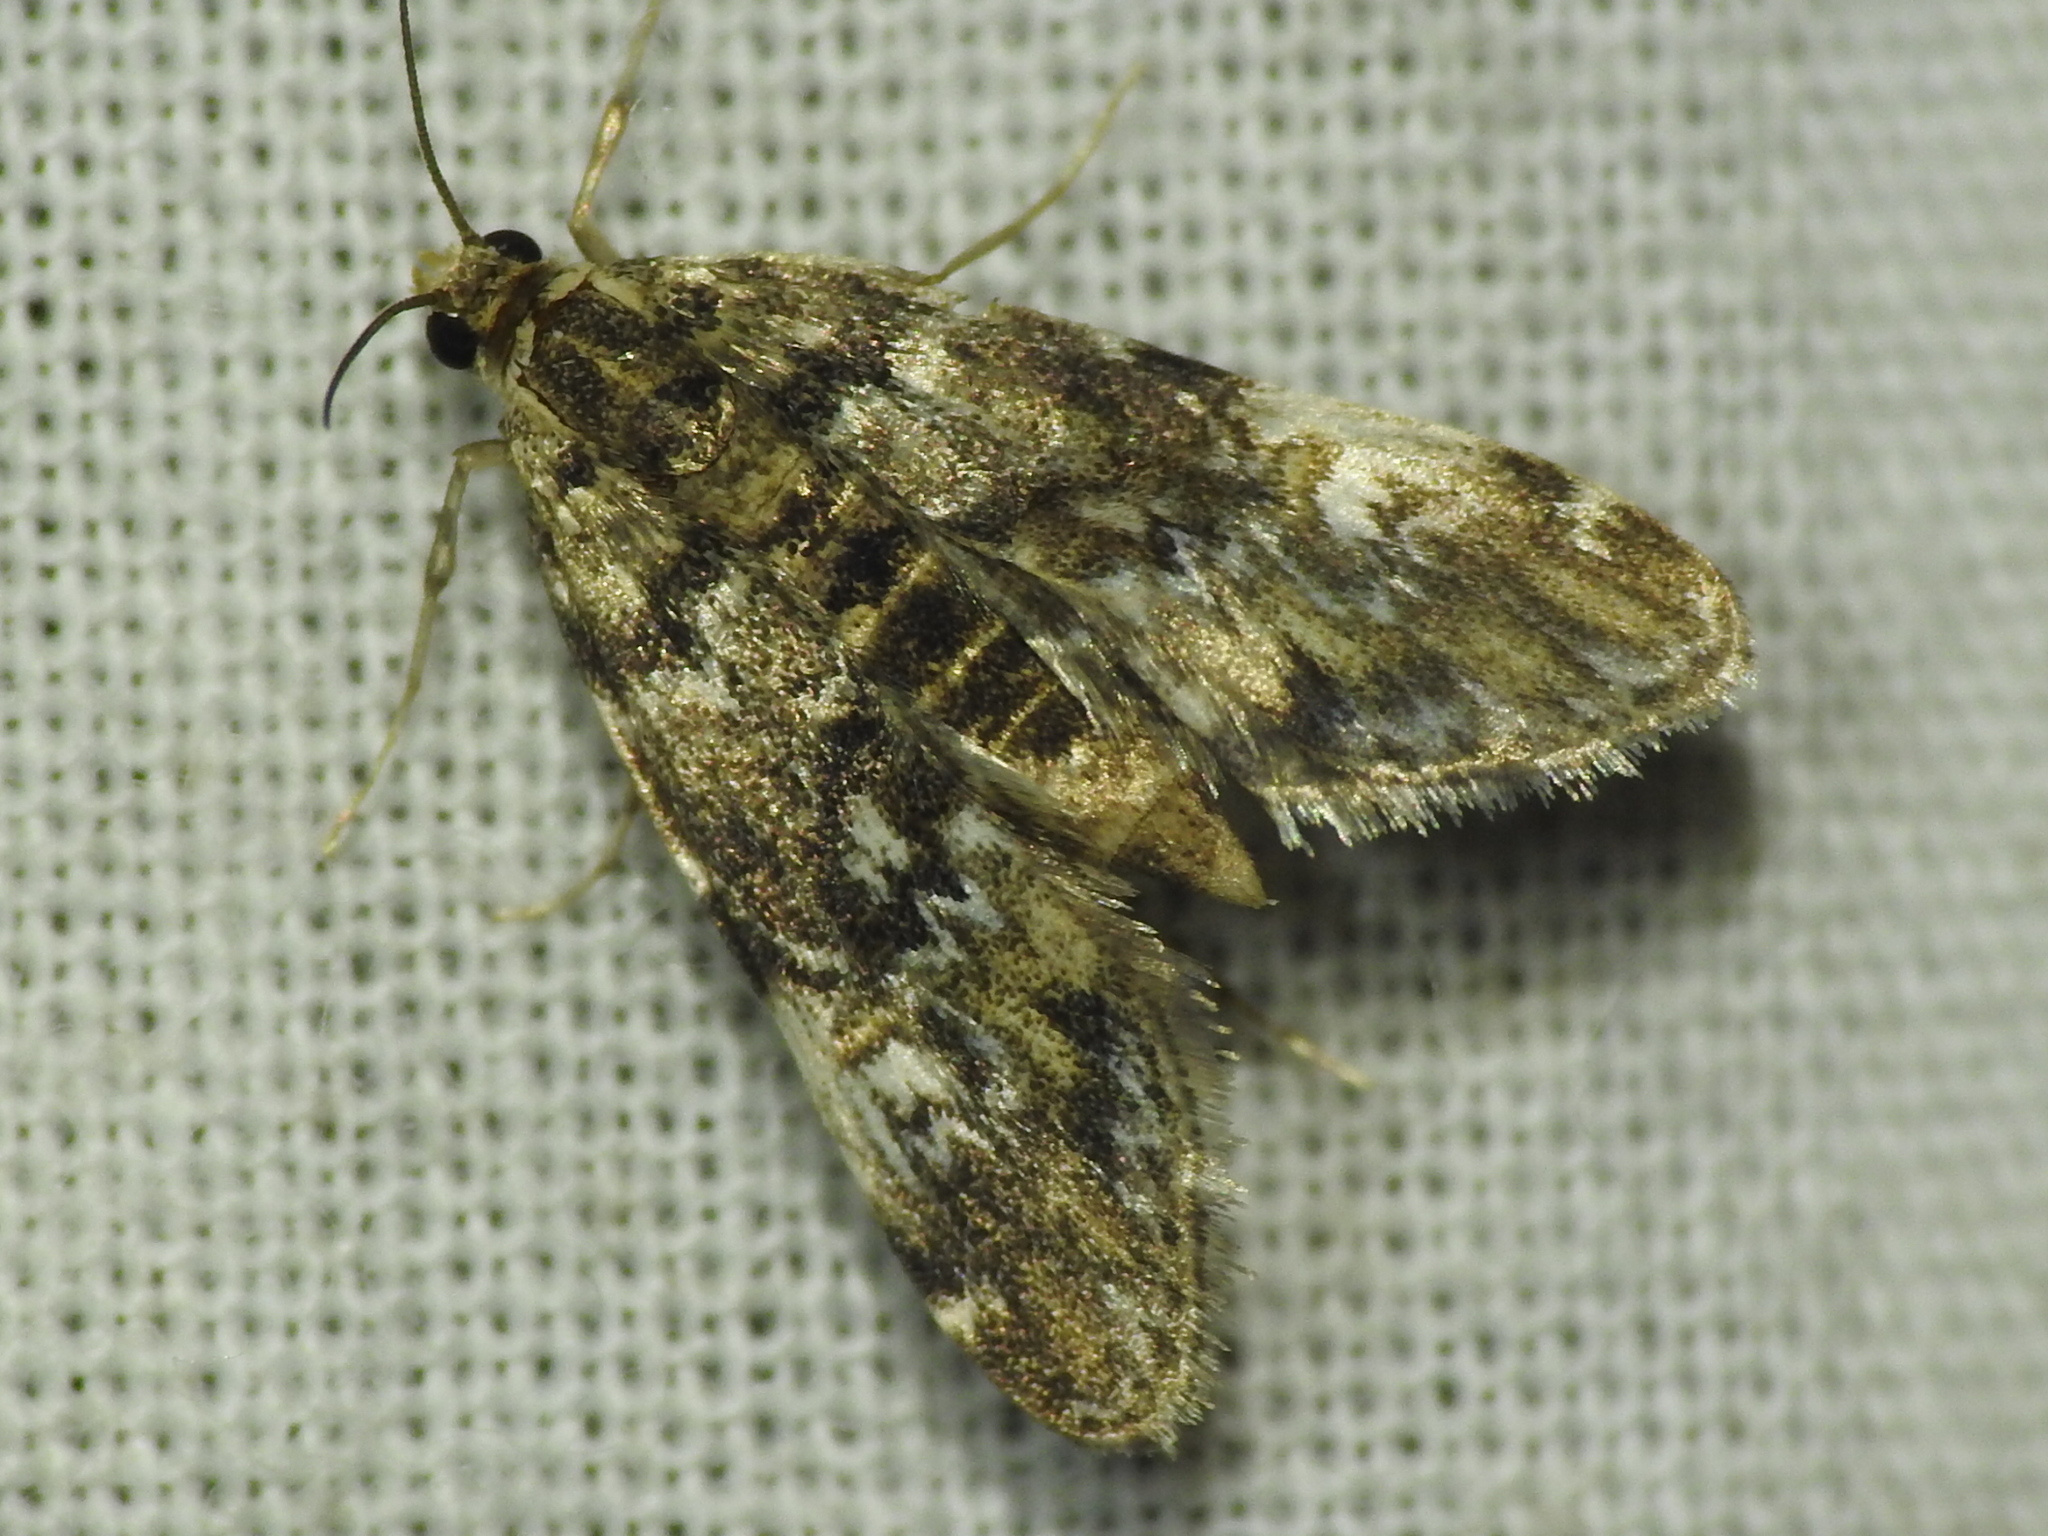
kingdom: Animalia
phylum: Arthropoda
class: Insecta
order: Lepidoptera
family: Crambidae
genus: Elophila
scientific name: Elophila obliteralis
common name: Waterlily leafcutter moth
